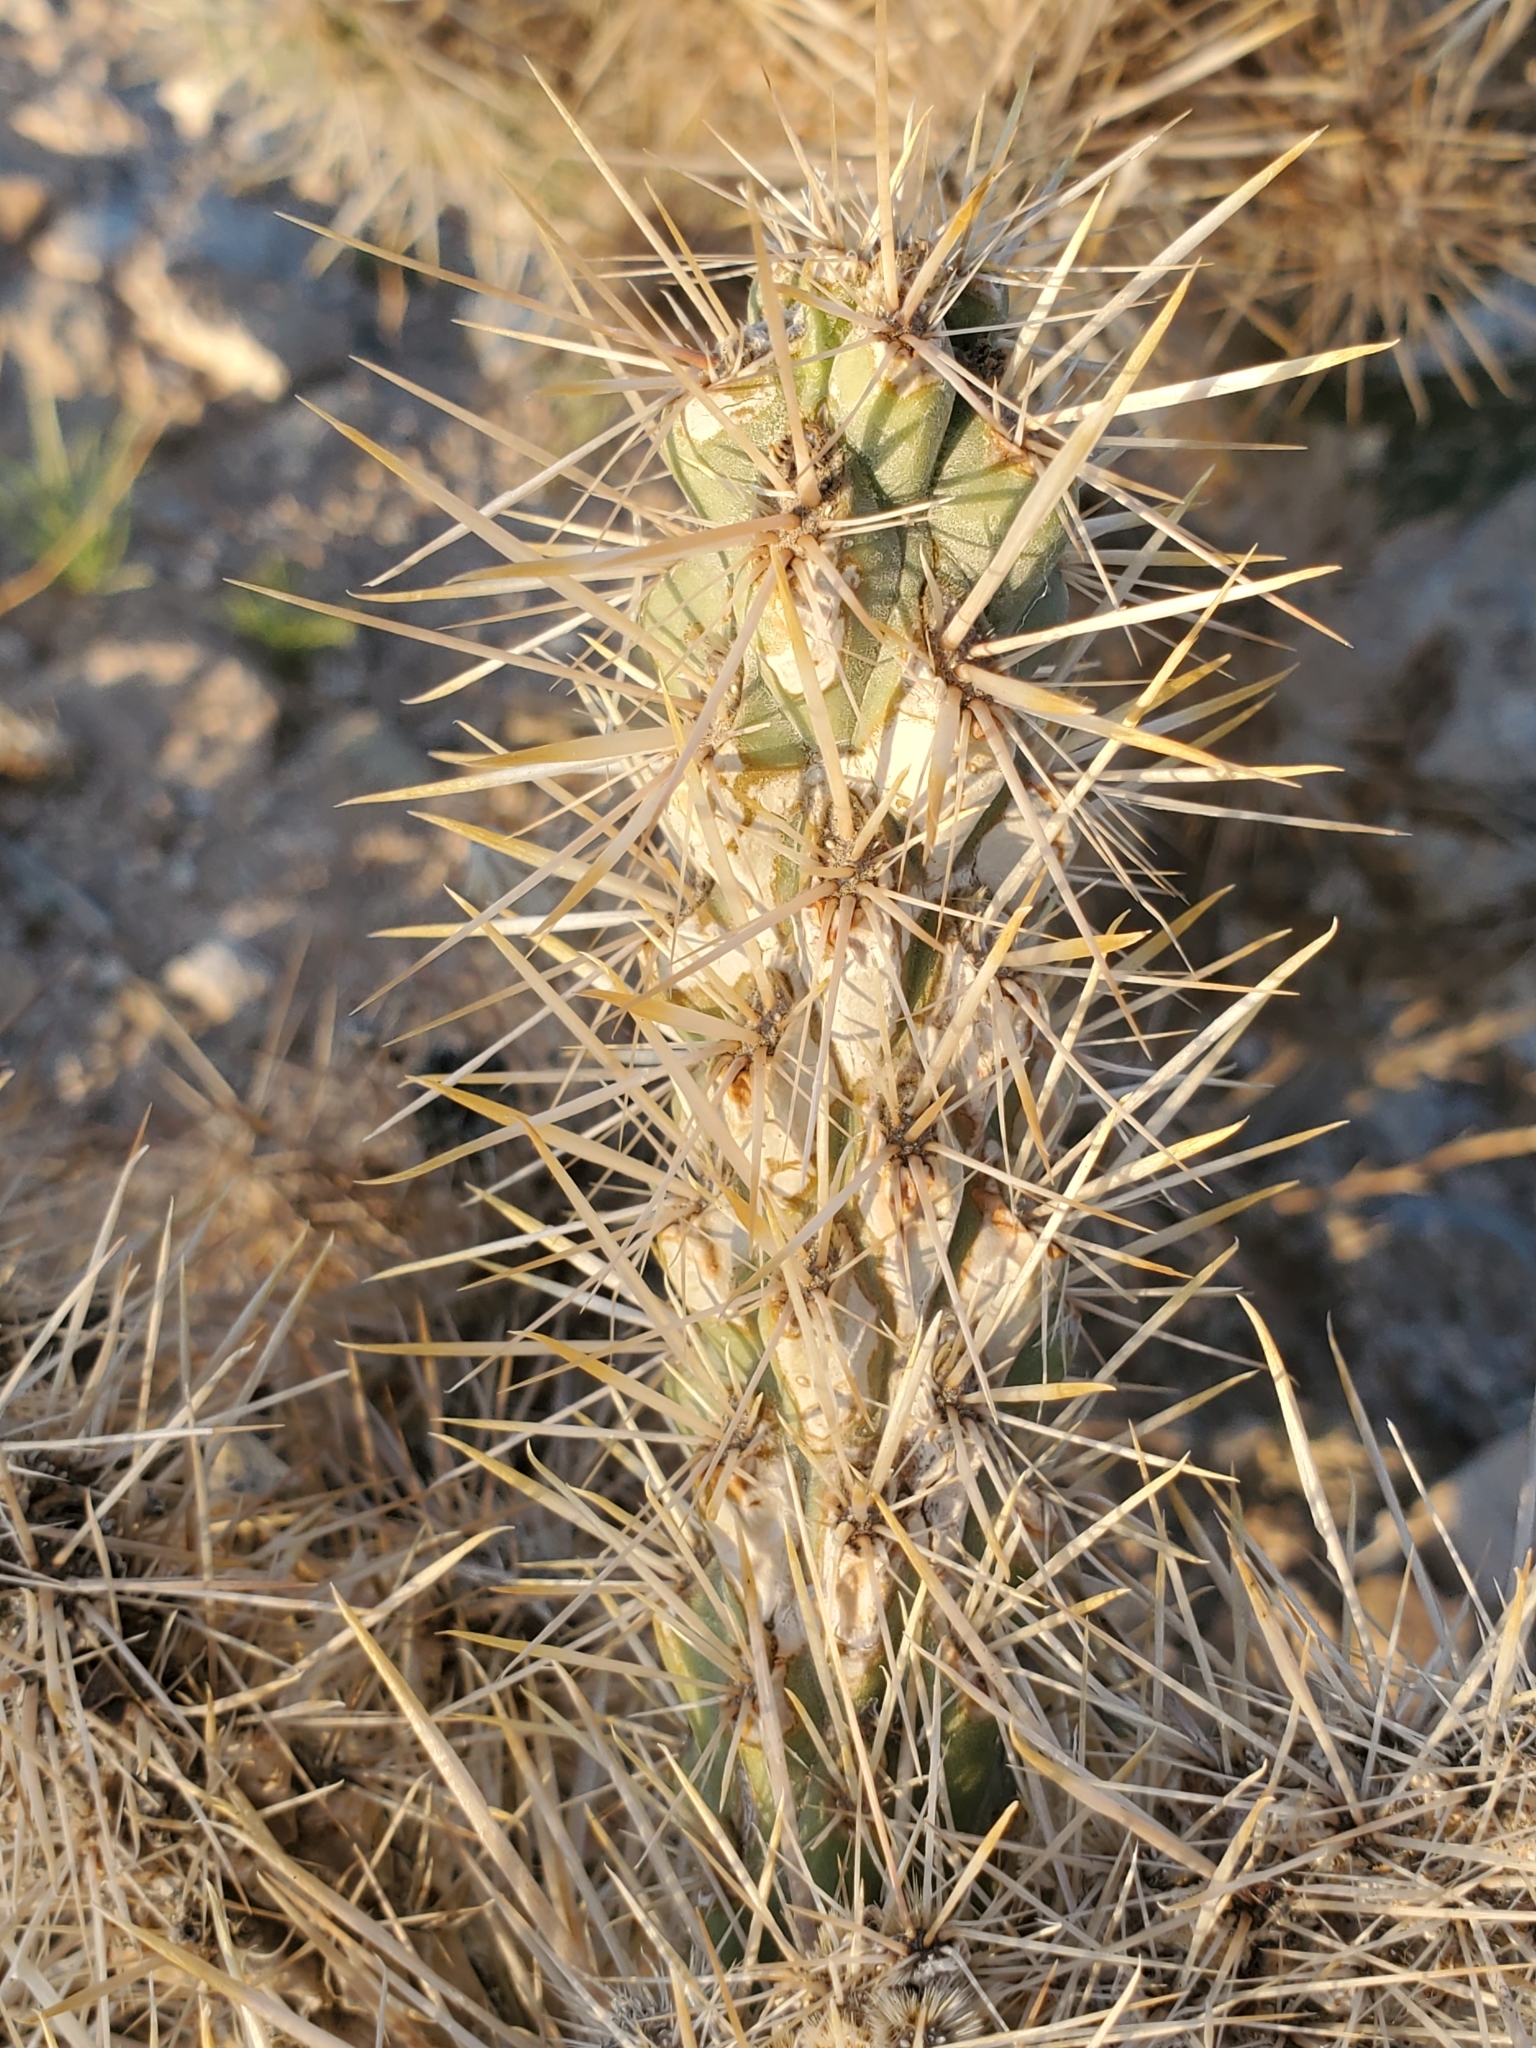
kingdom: Plantae
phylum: Tracheophyta
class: Magnoliopsida
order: Caryophyllales
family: Cactaceae
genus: Cylindropuntia
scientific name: Cylindropuntia echinocarpa
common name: Ground cholla
